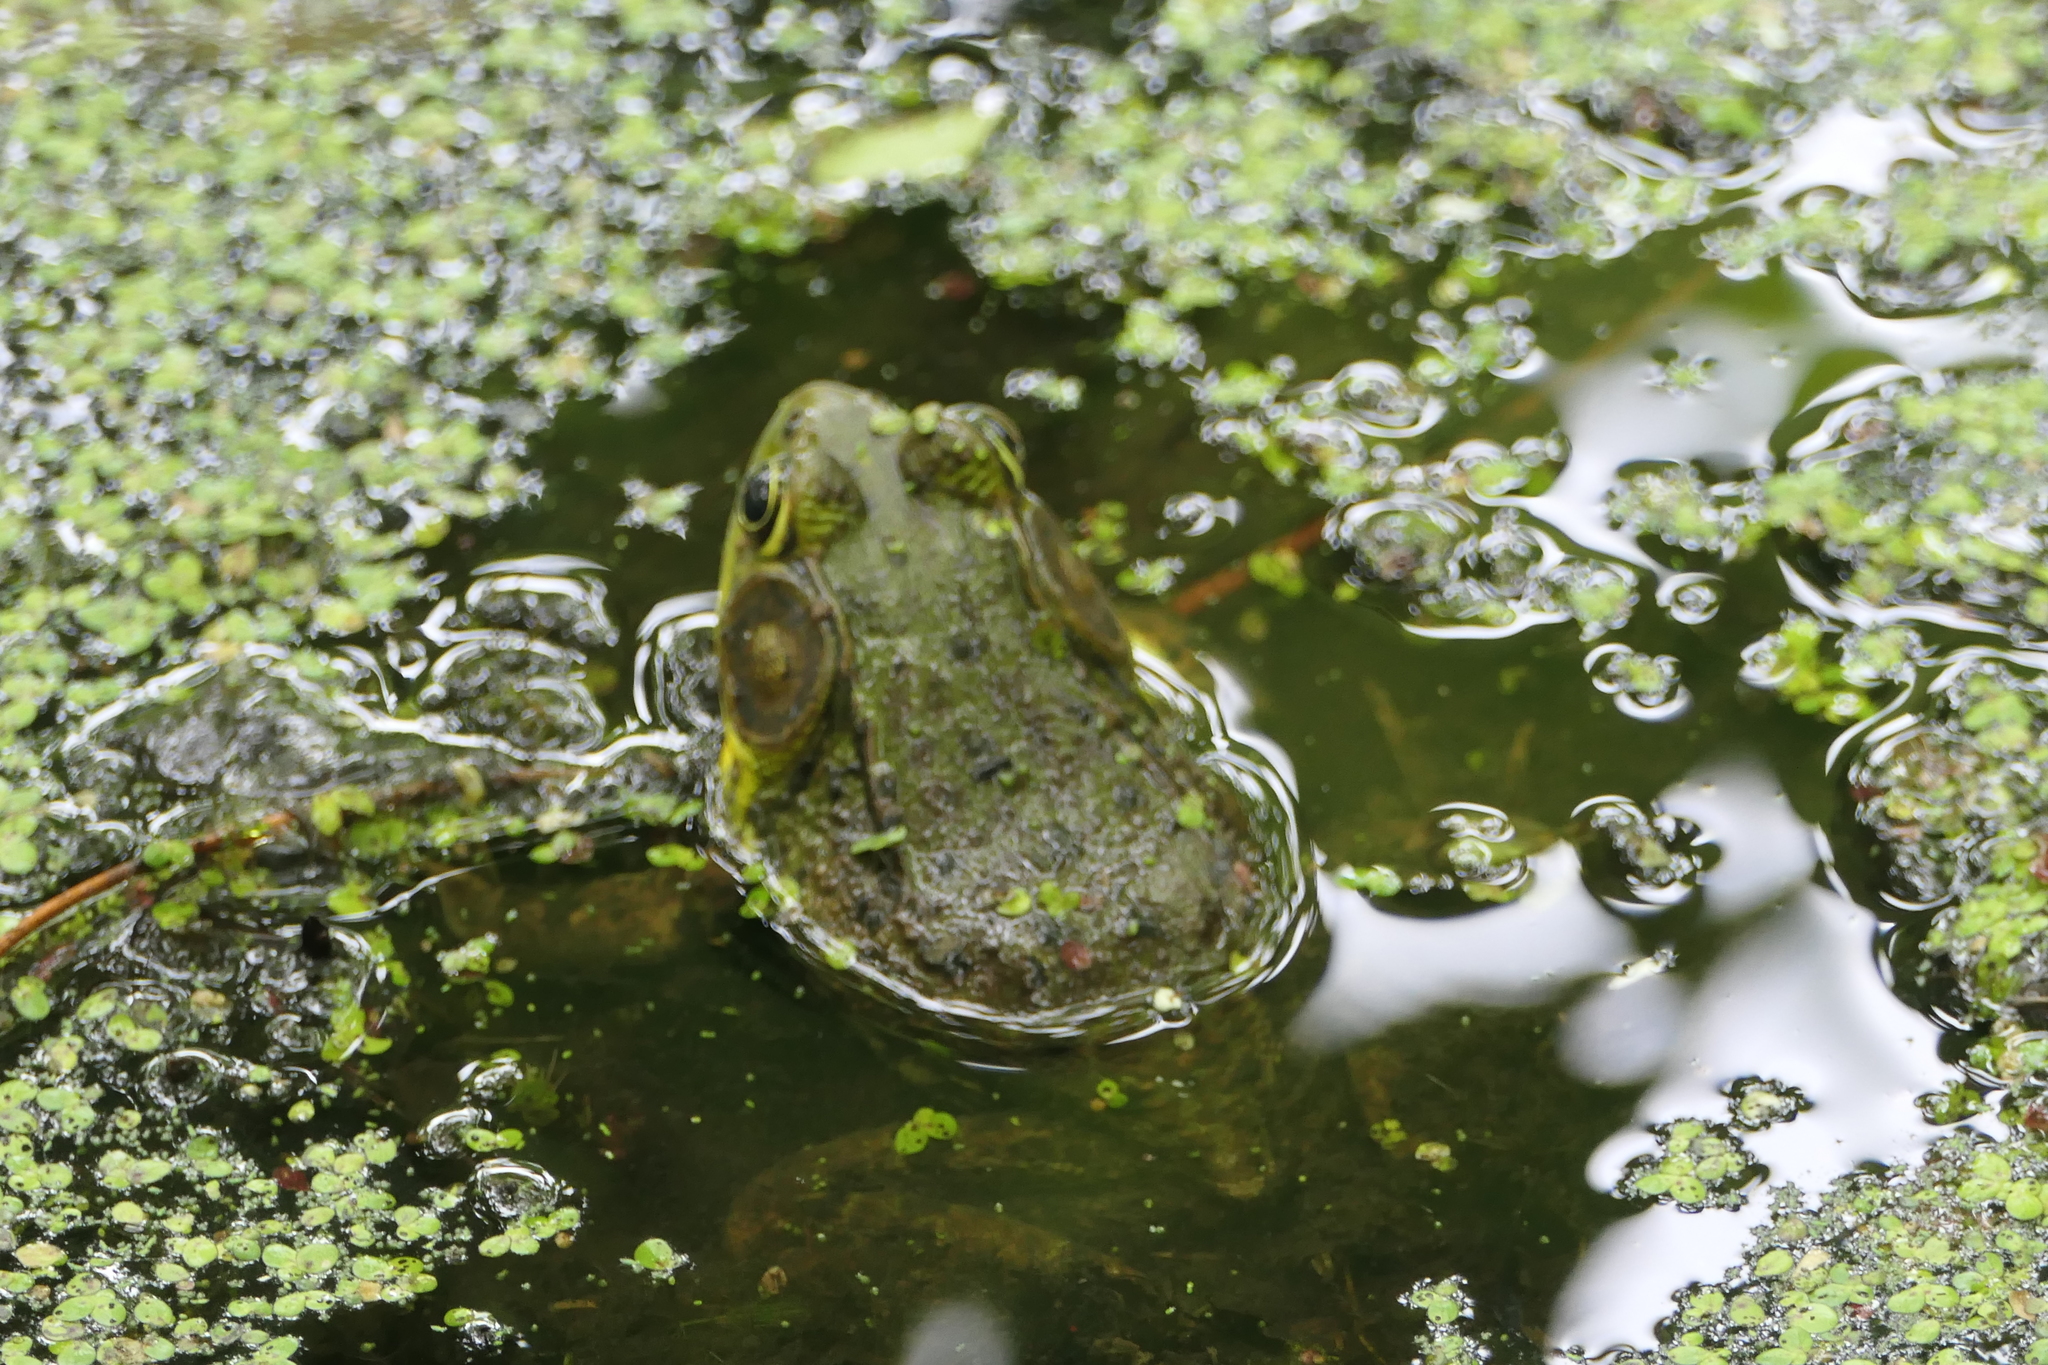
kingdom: Animalia
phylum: Chordata
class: Amphibia
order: Anura
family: Ranidae
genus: Lithobates
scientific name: Lithobates clamitans
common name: Green frog
